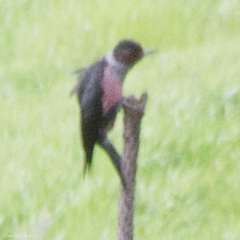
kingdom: Animalia
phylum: Chordata
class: Aves
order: Piciformes
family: Picidae
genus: Melanerpes
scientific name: Melanerpes lewis
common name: Lewis's woodpecker
